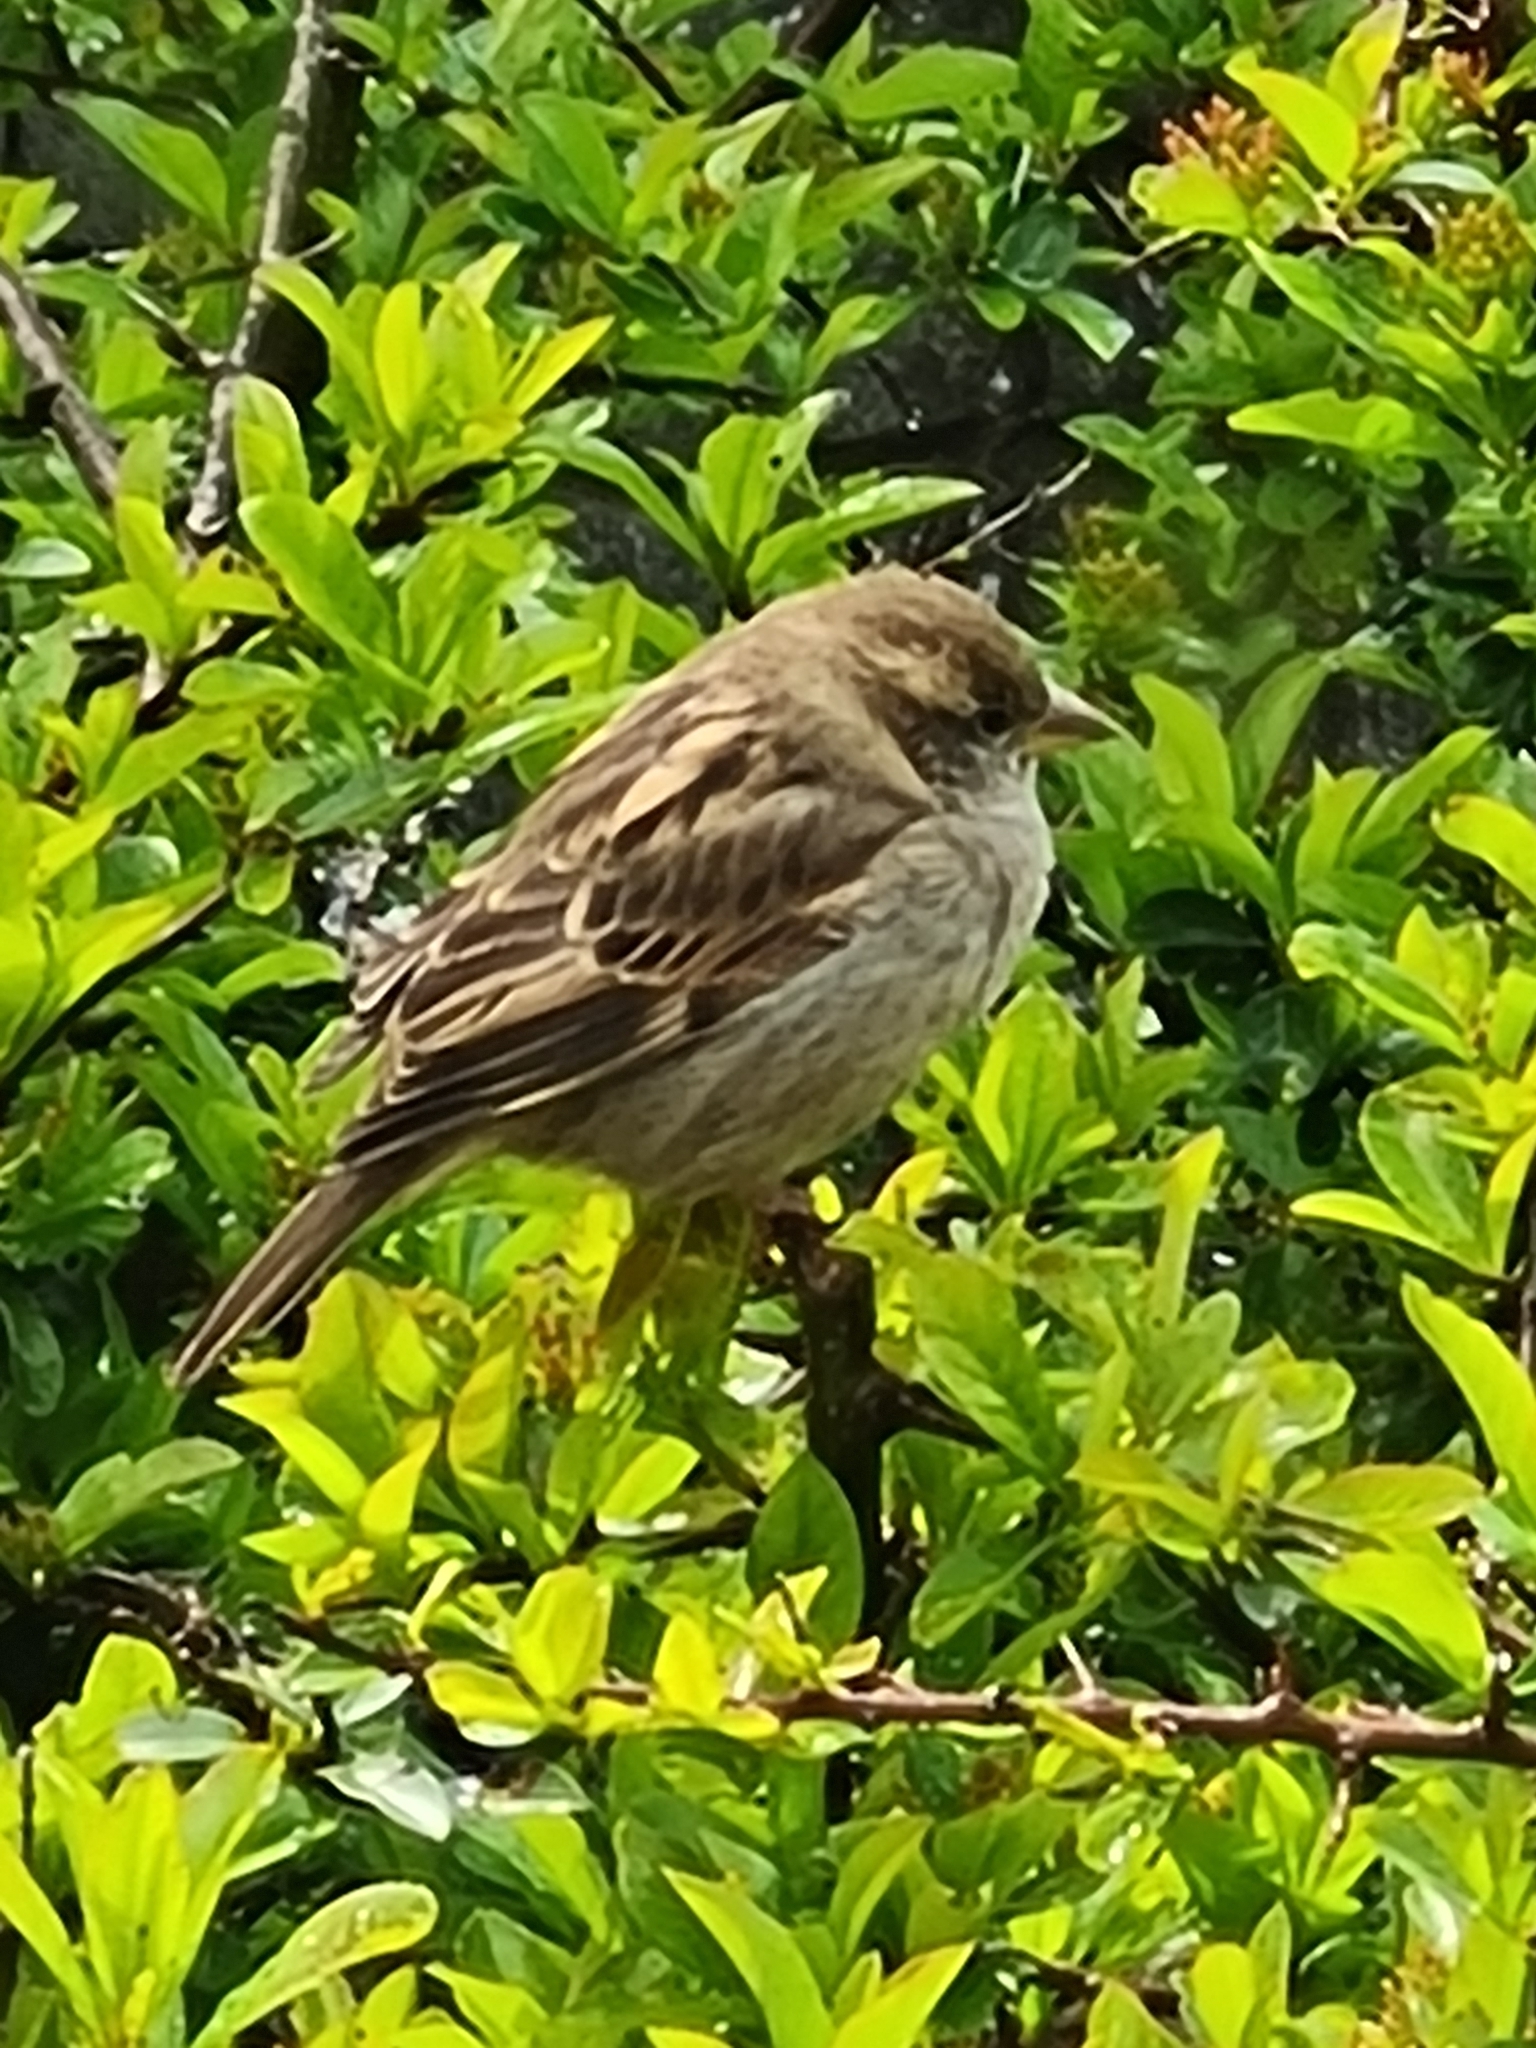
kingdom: Animalia
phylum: Chordata
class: Aves
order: Passeriformes
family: Passeridae
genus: Passer
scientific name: Passer domesticus
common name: House sparrow
